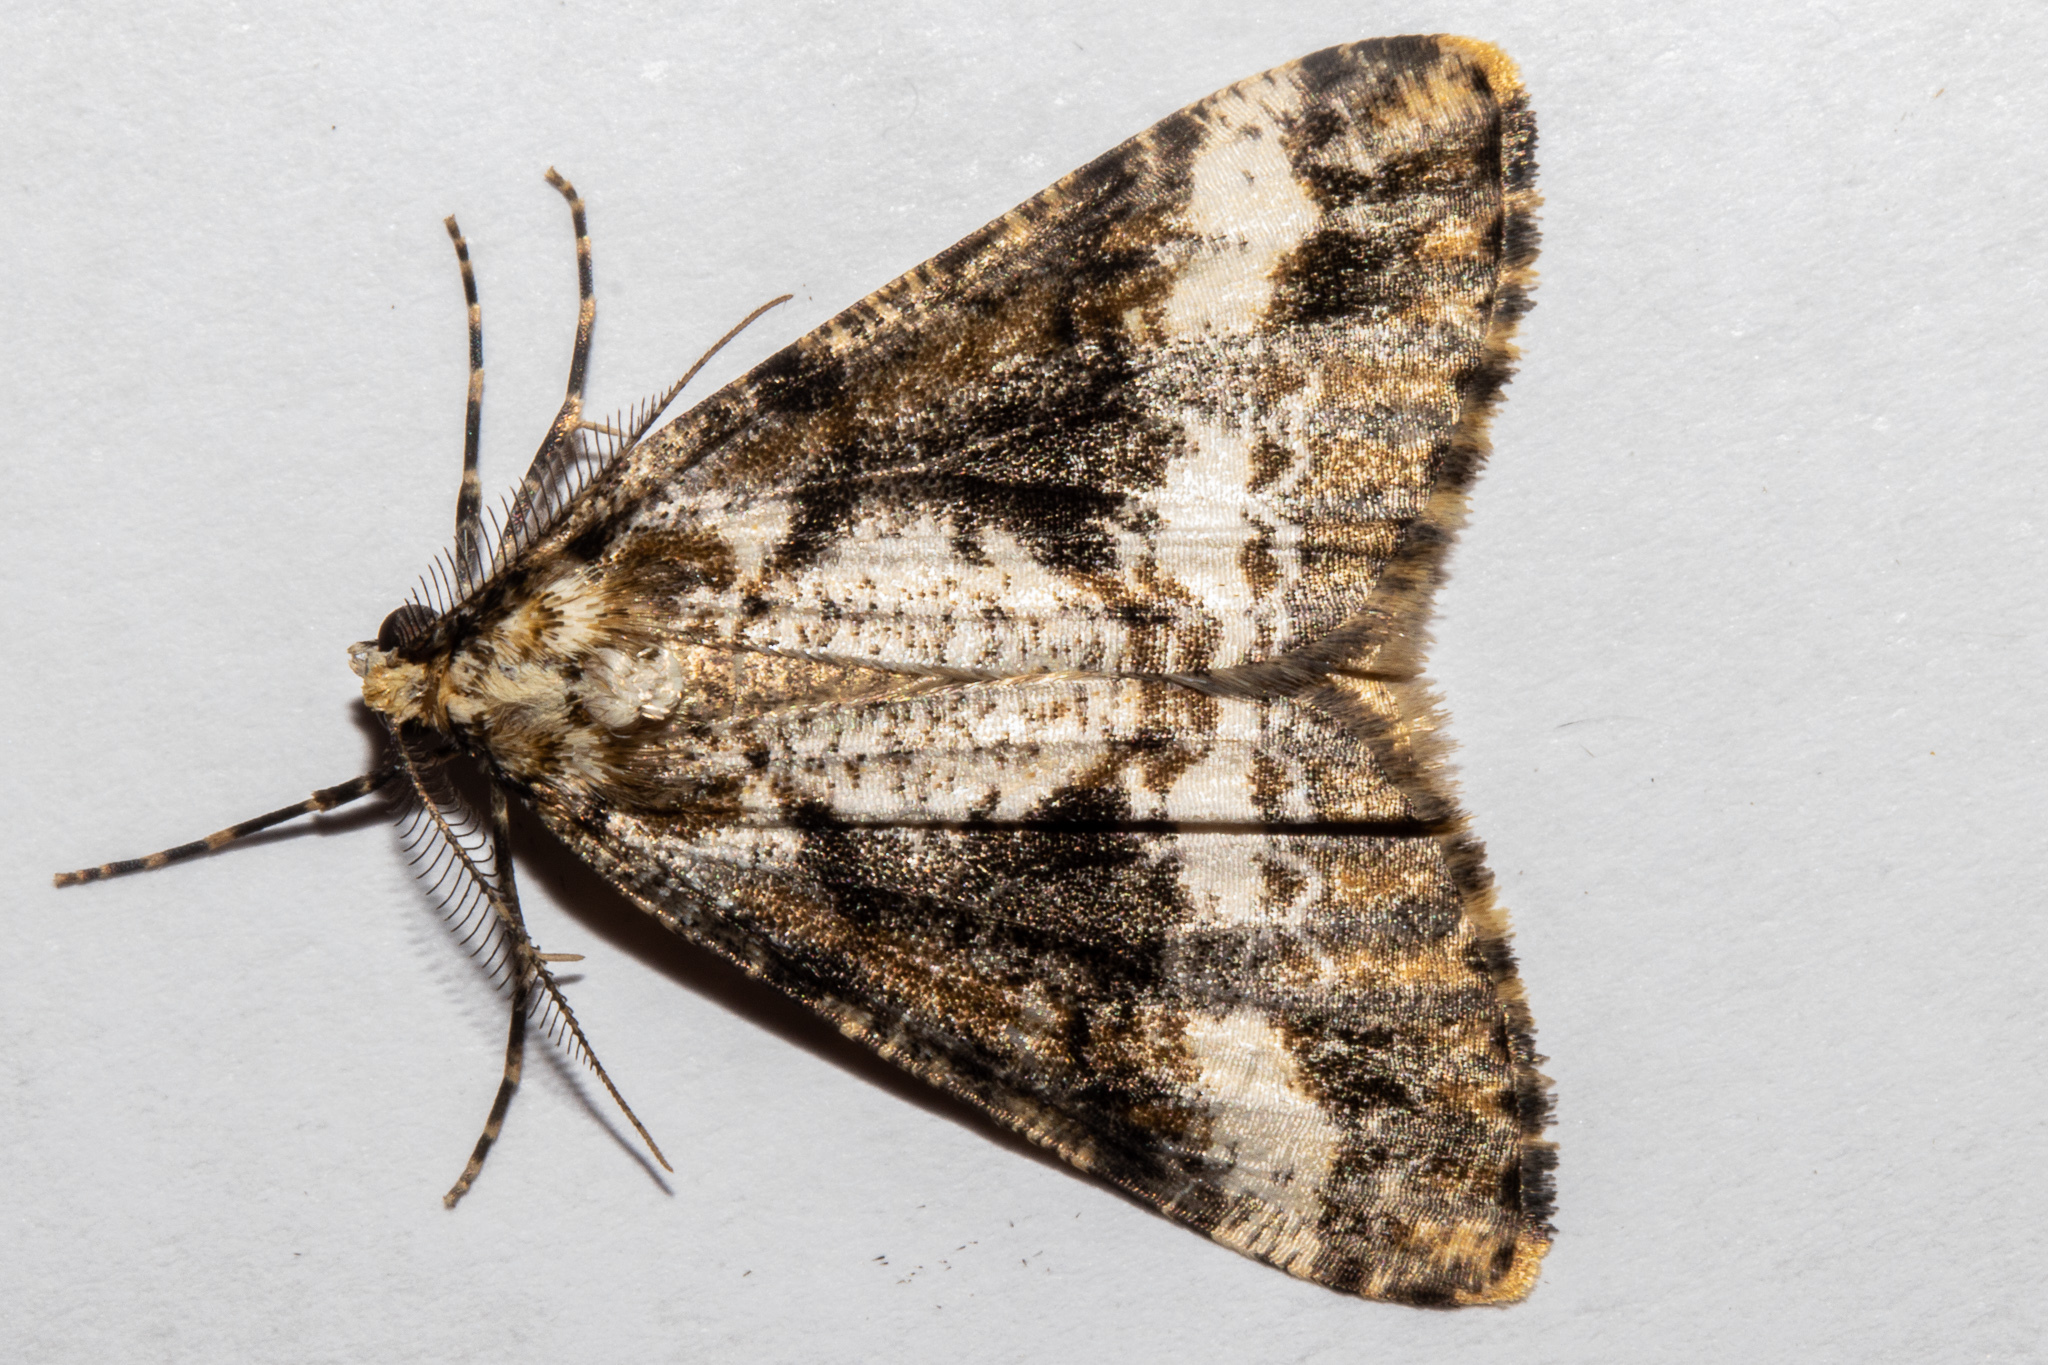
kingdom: Animalia
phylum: Arthropoda
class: Insecta
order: Lepidoptera
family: Geometridae
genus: Pseudocoremia
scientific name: Pseudocoremia leucelaea
